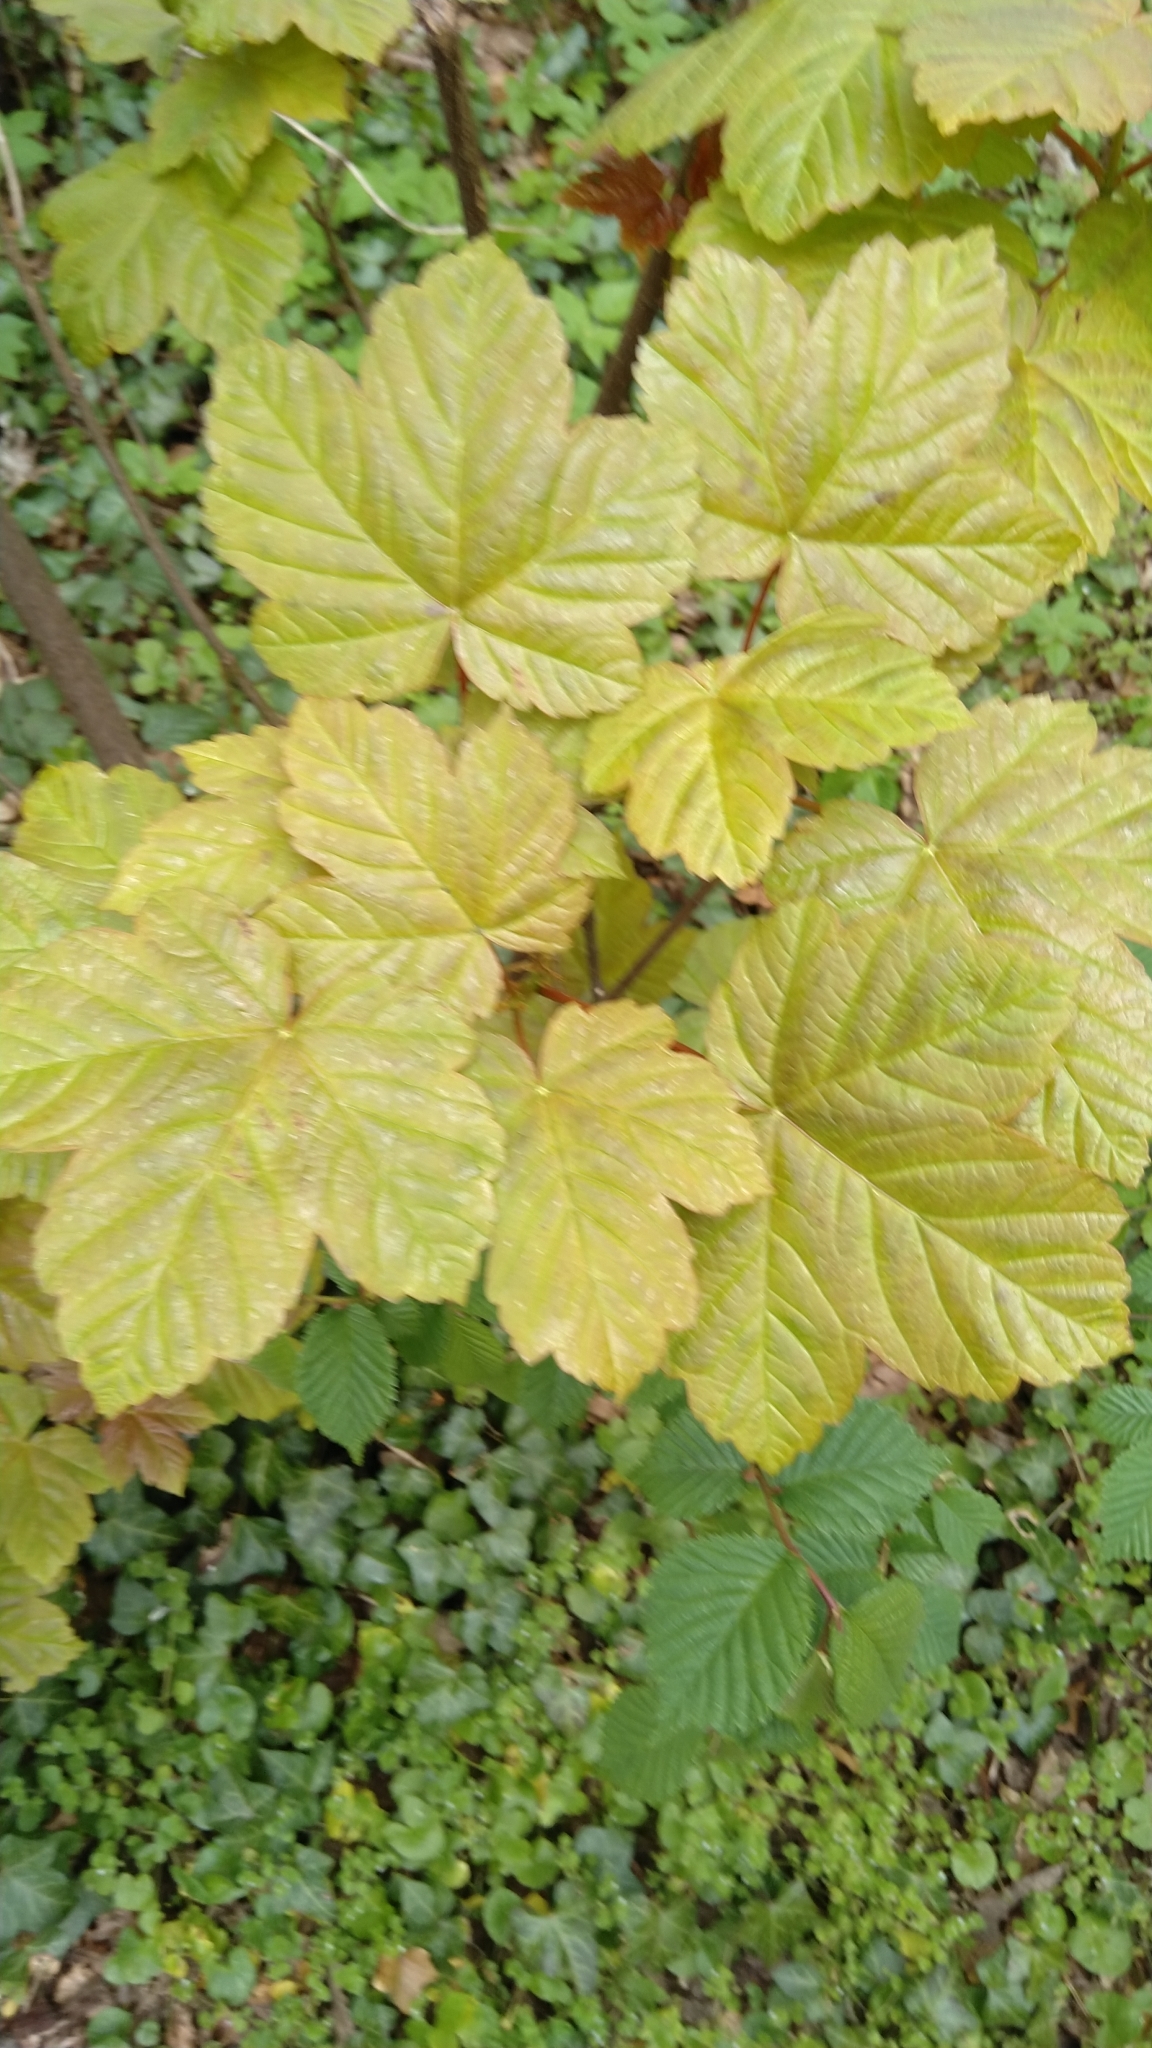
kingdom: Plantae
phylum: Tracheophyta
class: Magnoliopsida
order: Sapindales
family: Sapindaceae
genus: Acer
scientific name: Acer pseudoplatanus
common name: Sycamore
